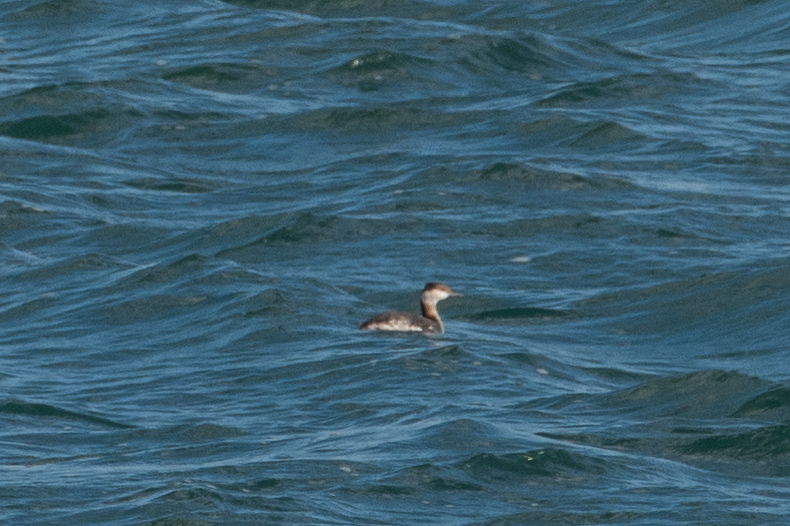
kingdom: Animalia
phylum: Chordata
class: Aves
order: Podicipediformes
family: Podicipedidae
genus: Podiceps
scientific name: Podiceps auritus
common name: Horned grebe
